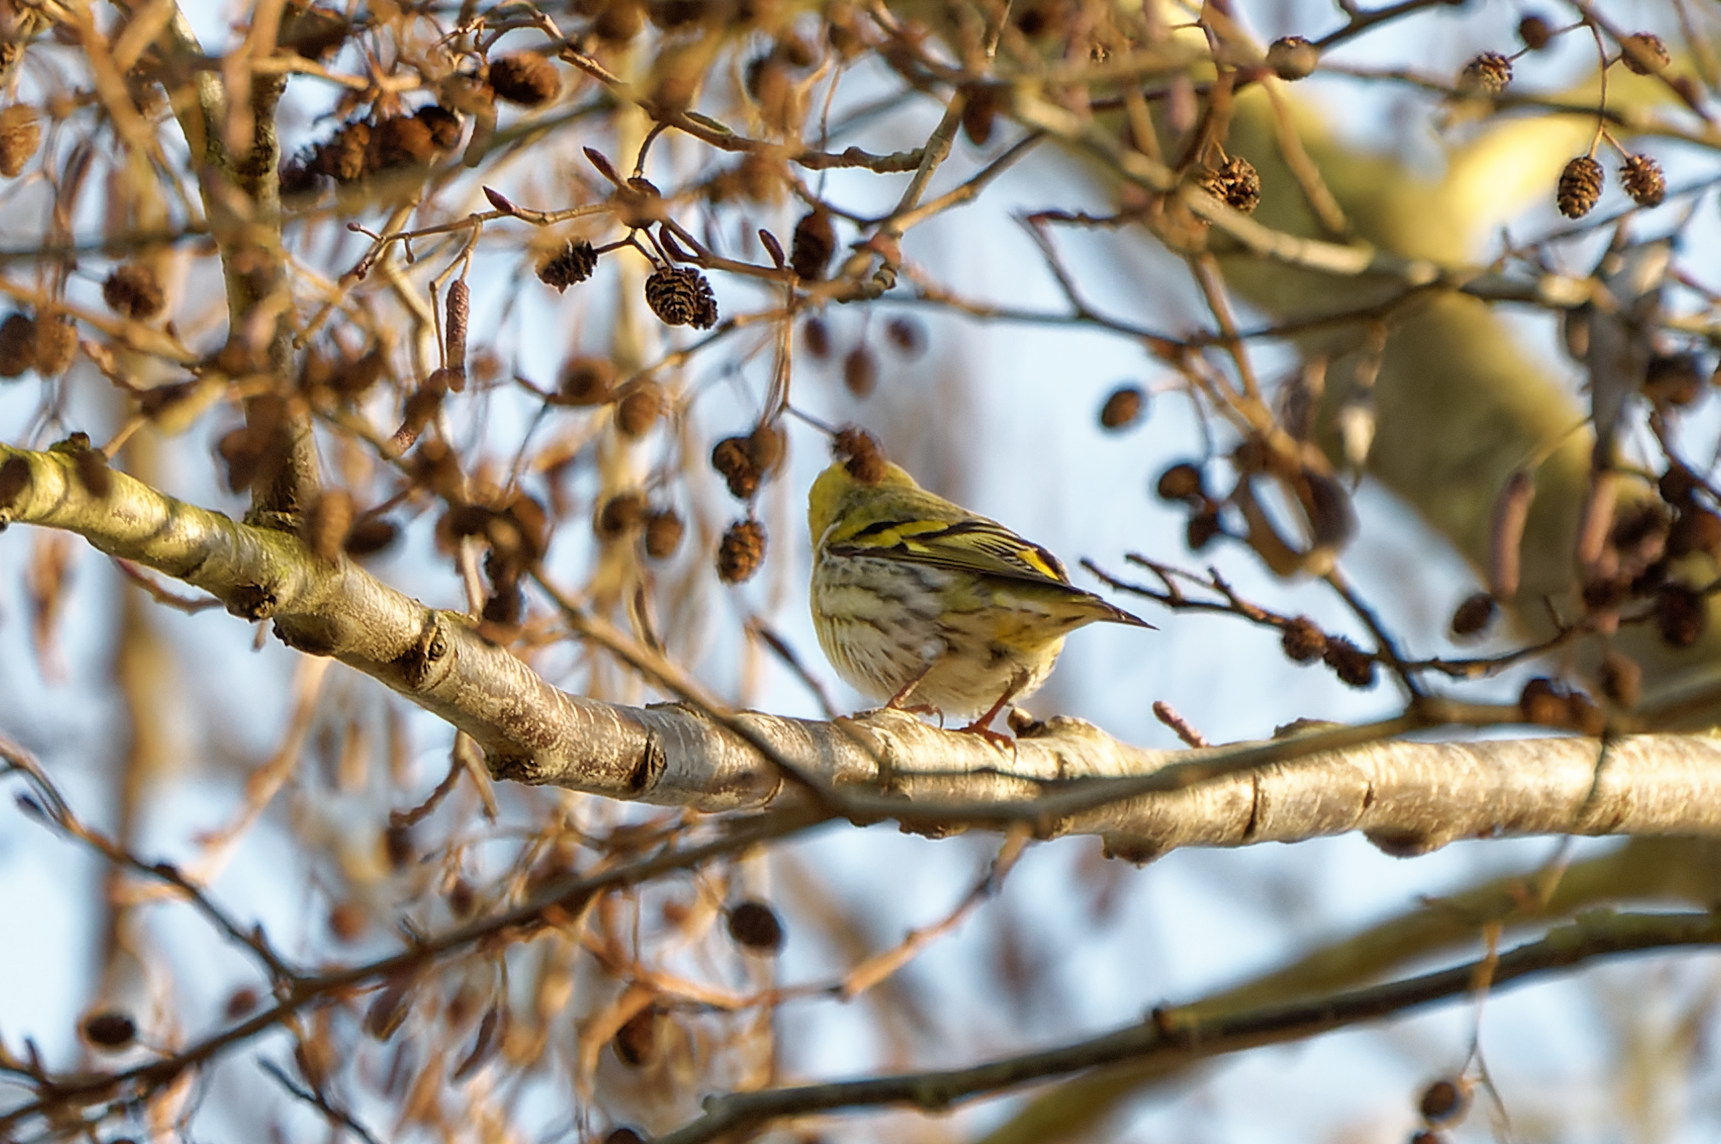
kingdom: Animalia
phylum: Chordata
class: Aves
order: Passeriformes
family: Fringillidae
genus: Spinus
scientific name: Spinus spinus
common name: Eurasian siskin
